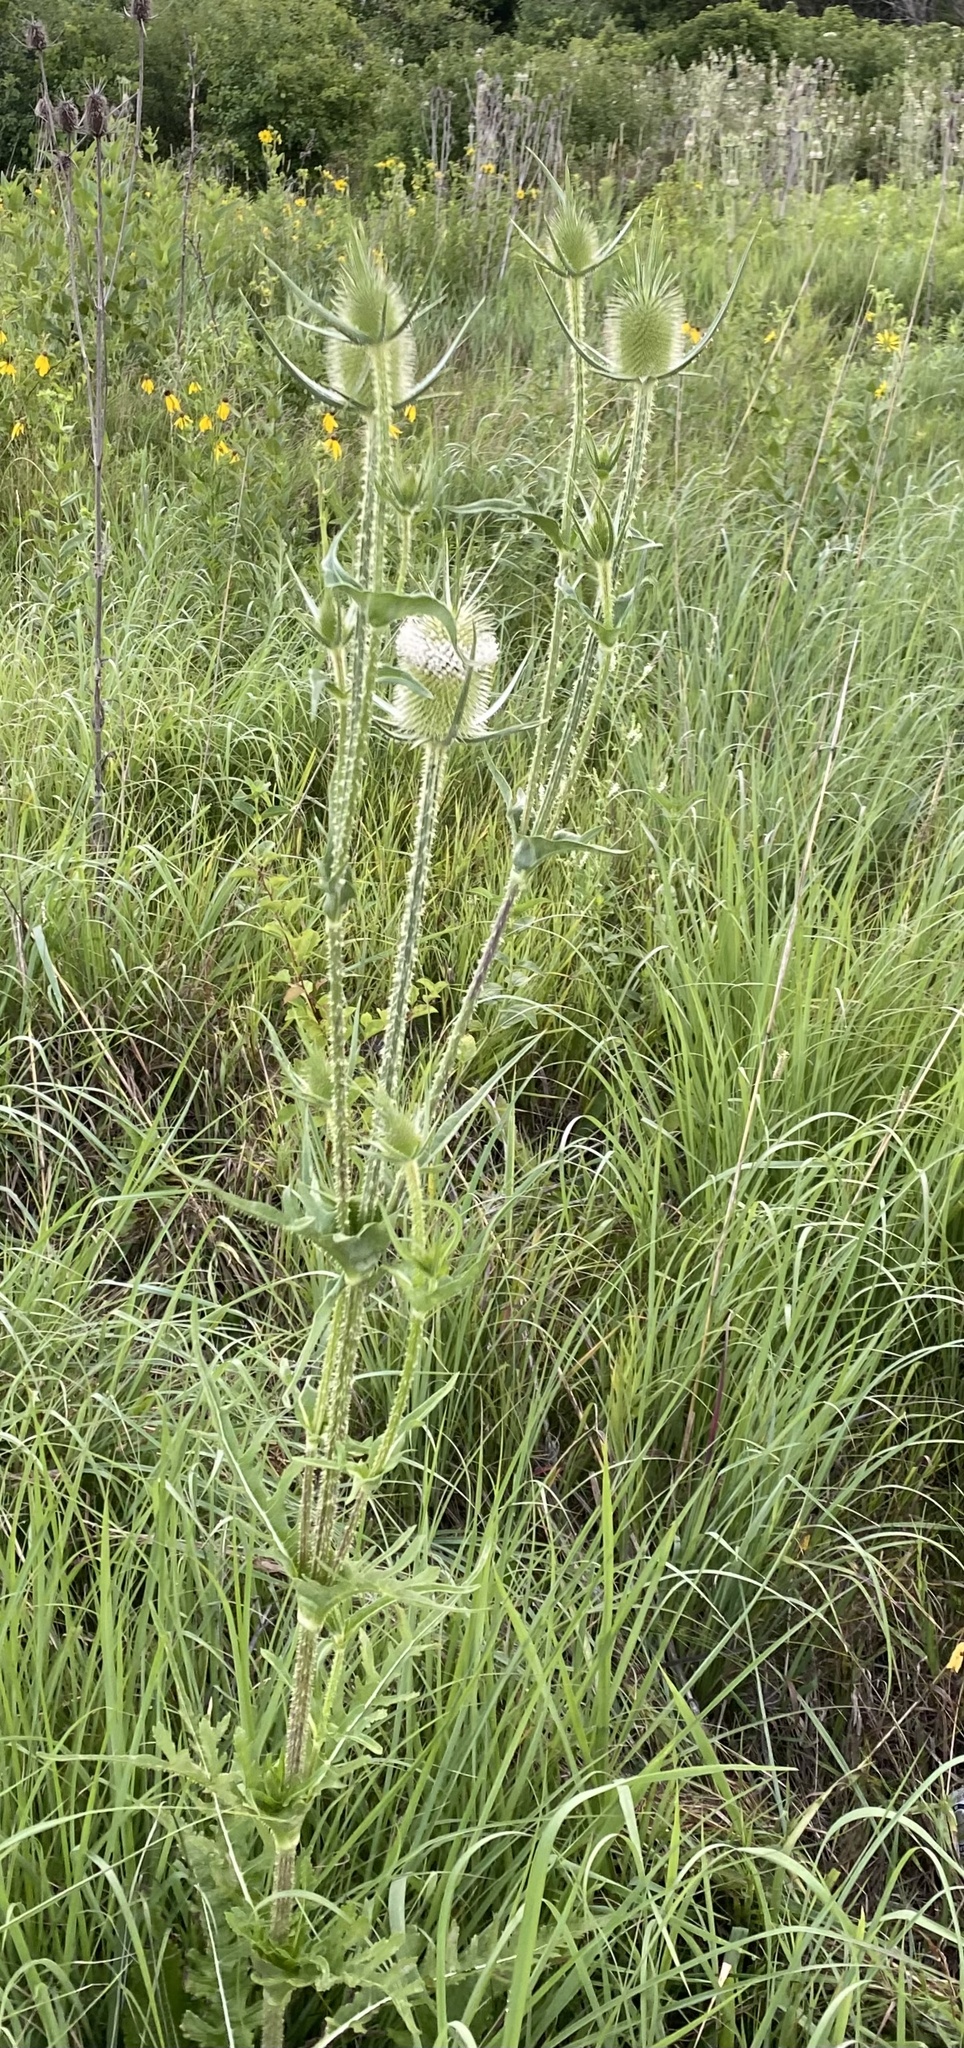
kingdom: Plantae
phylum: Tracheophyta
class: Magnoliopsida
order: Dipsacales
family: Caprifoliaceae
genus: Dipsacus
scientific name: Dipsacus laciniatus
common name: Cut-leaved teasel
